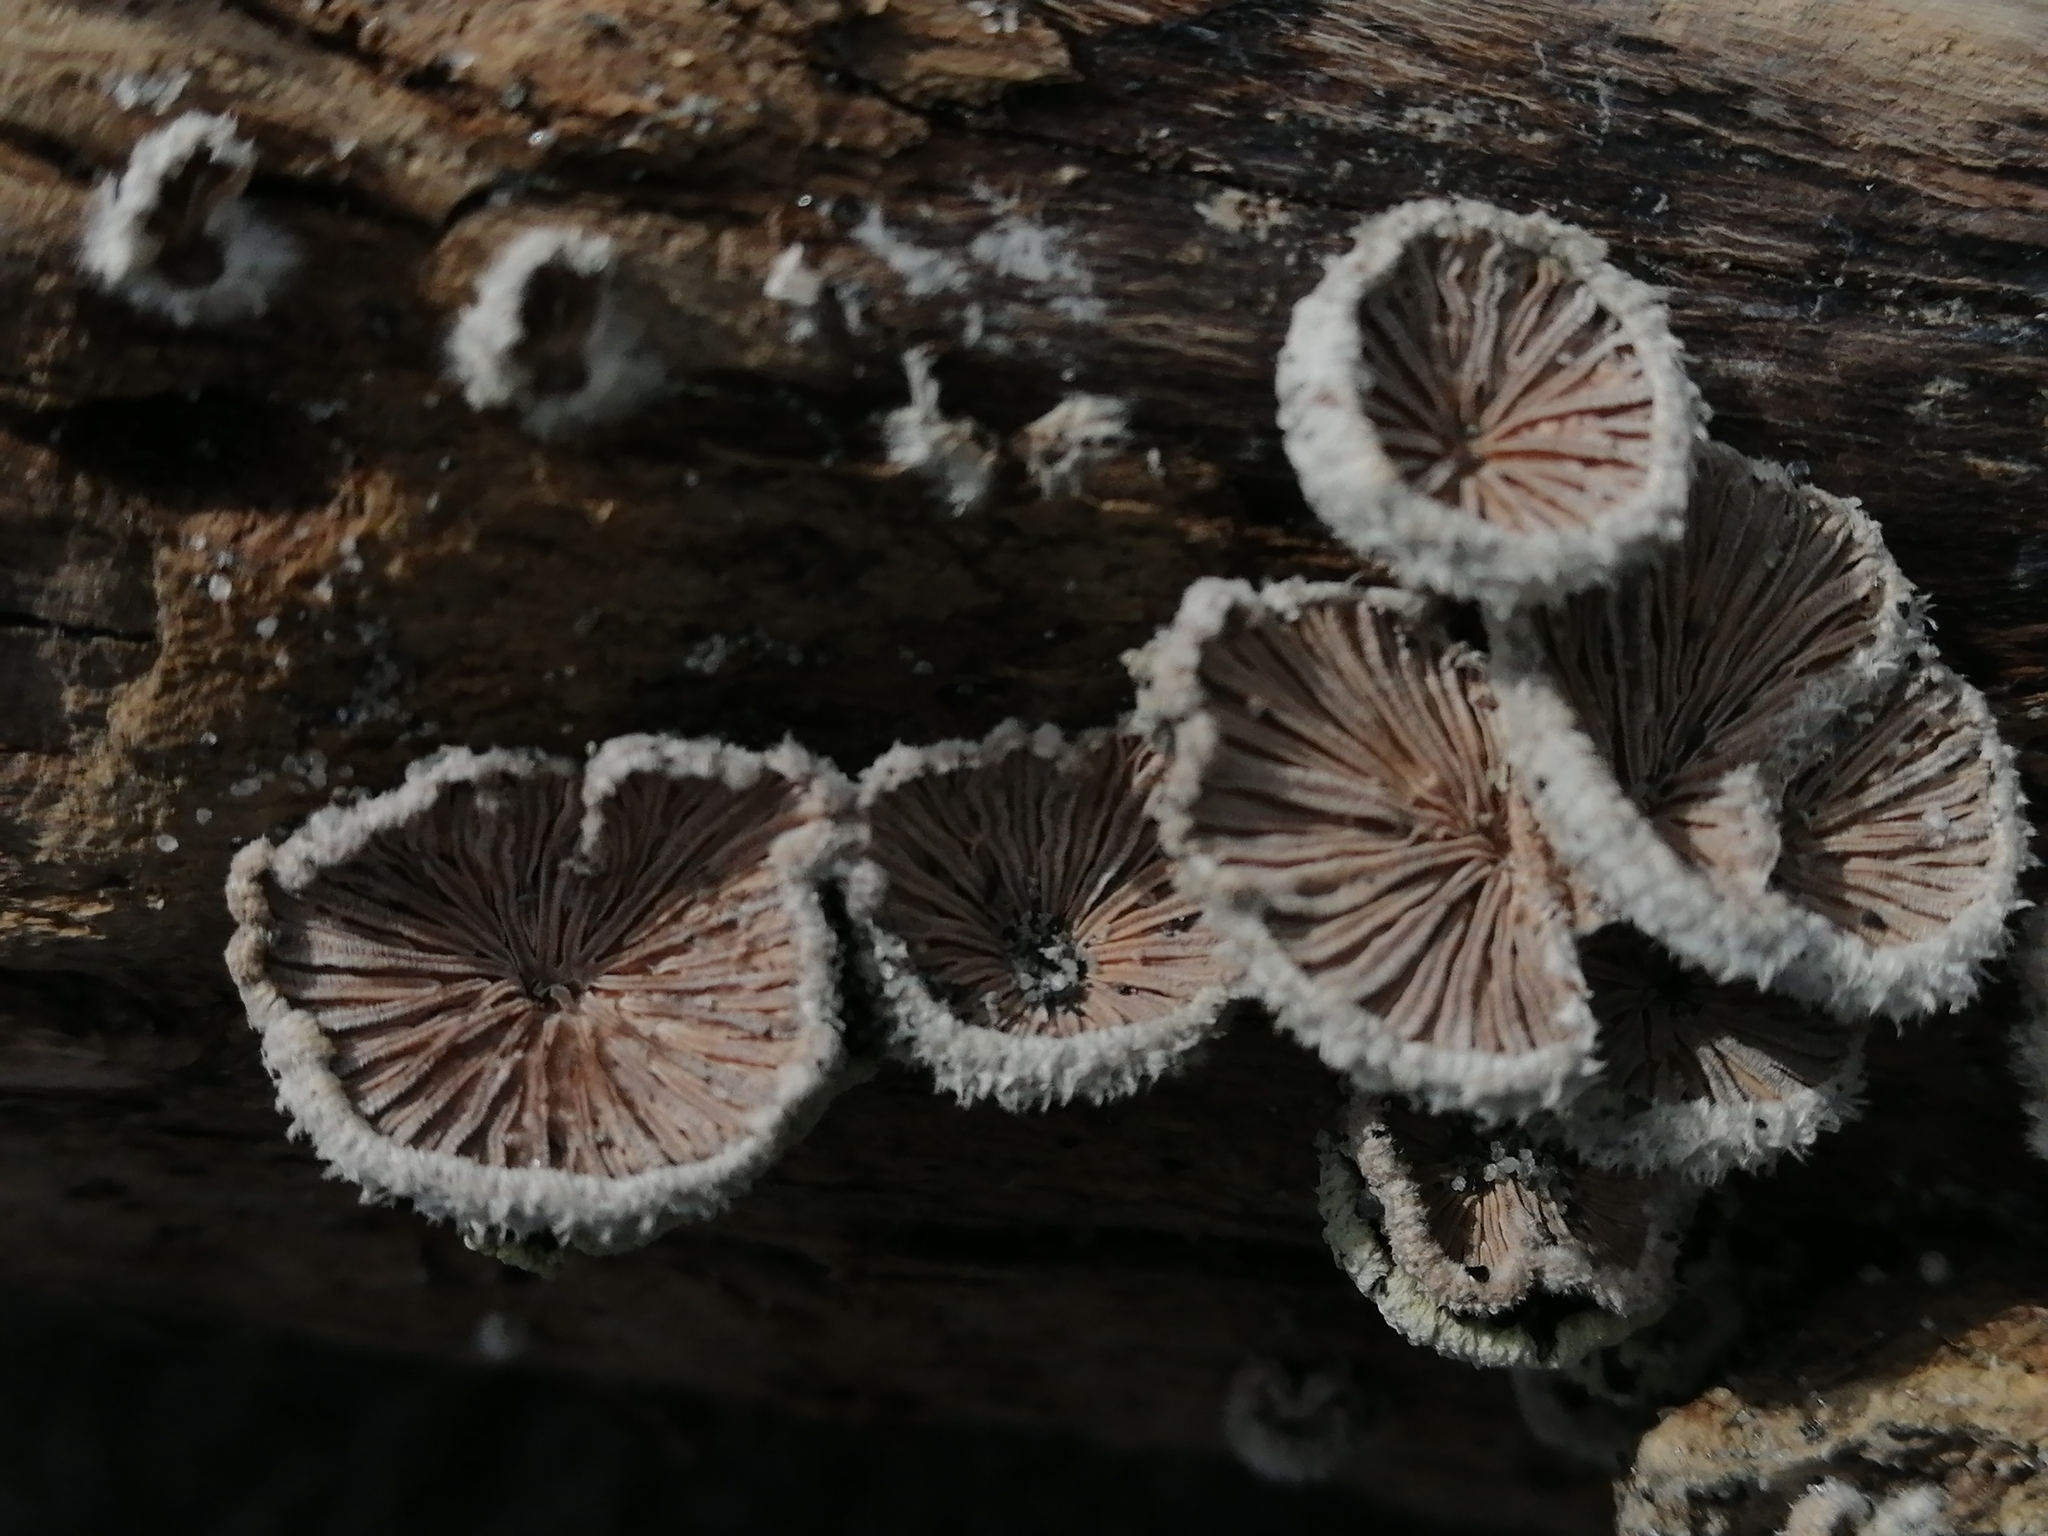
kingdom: Fungi
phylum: Basidiomycota
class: Agaricomycetes
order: Agaricales
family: Schizophyllaceae
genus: Schizophyllum
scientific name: Schizophyllum commune
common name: Common porecrust
